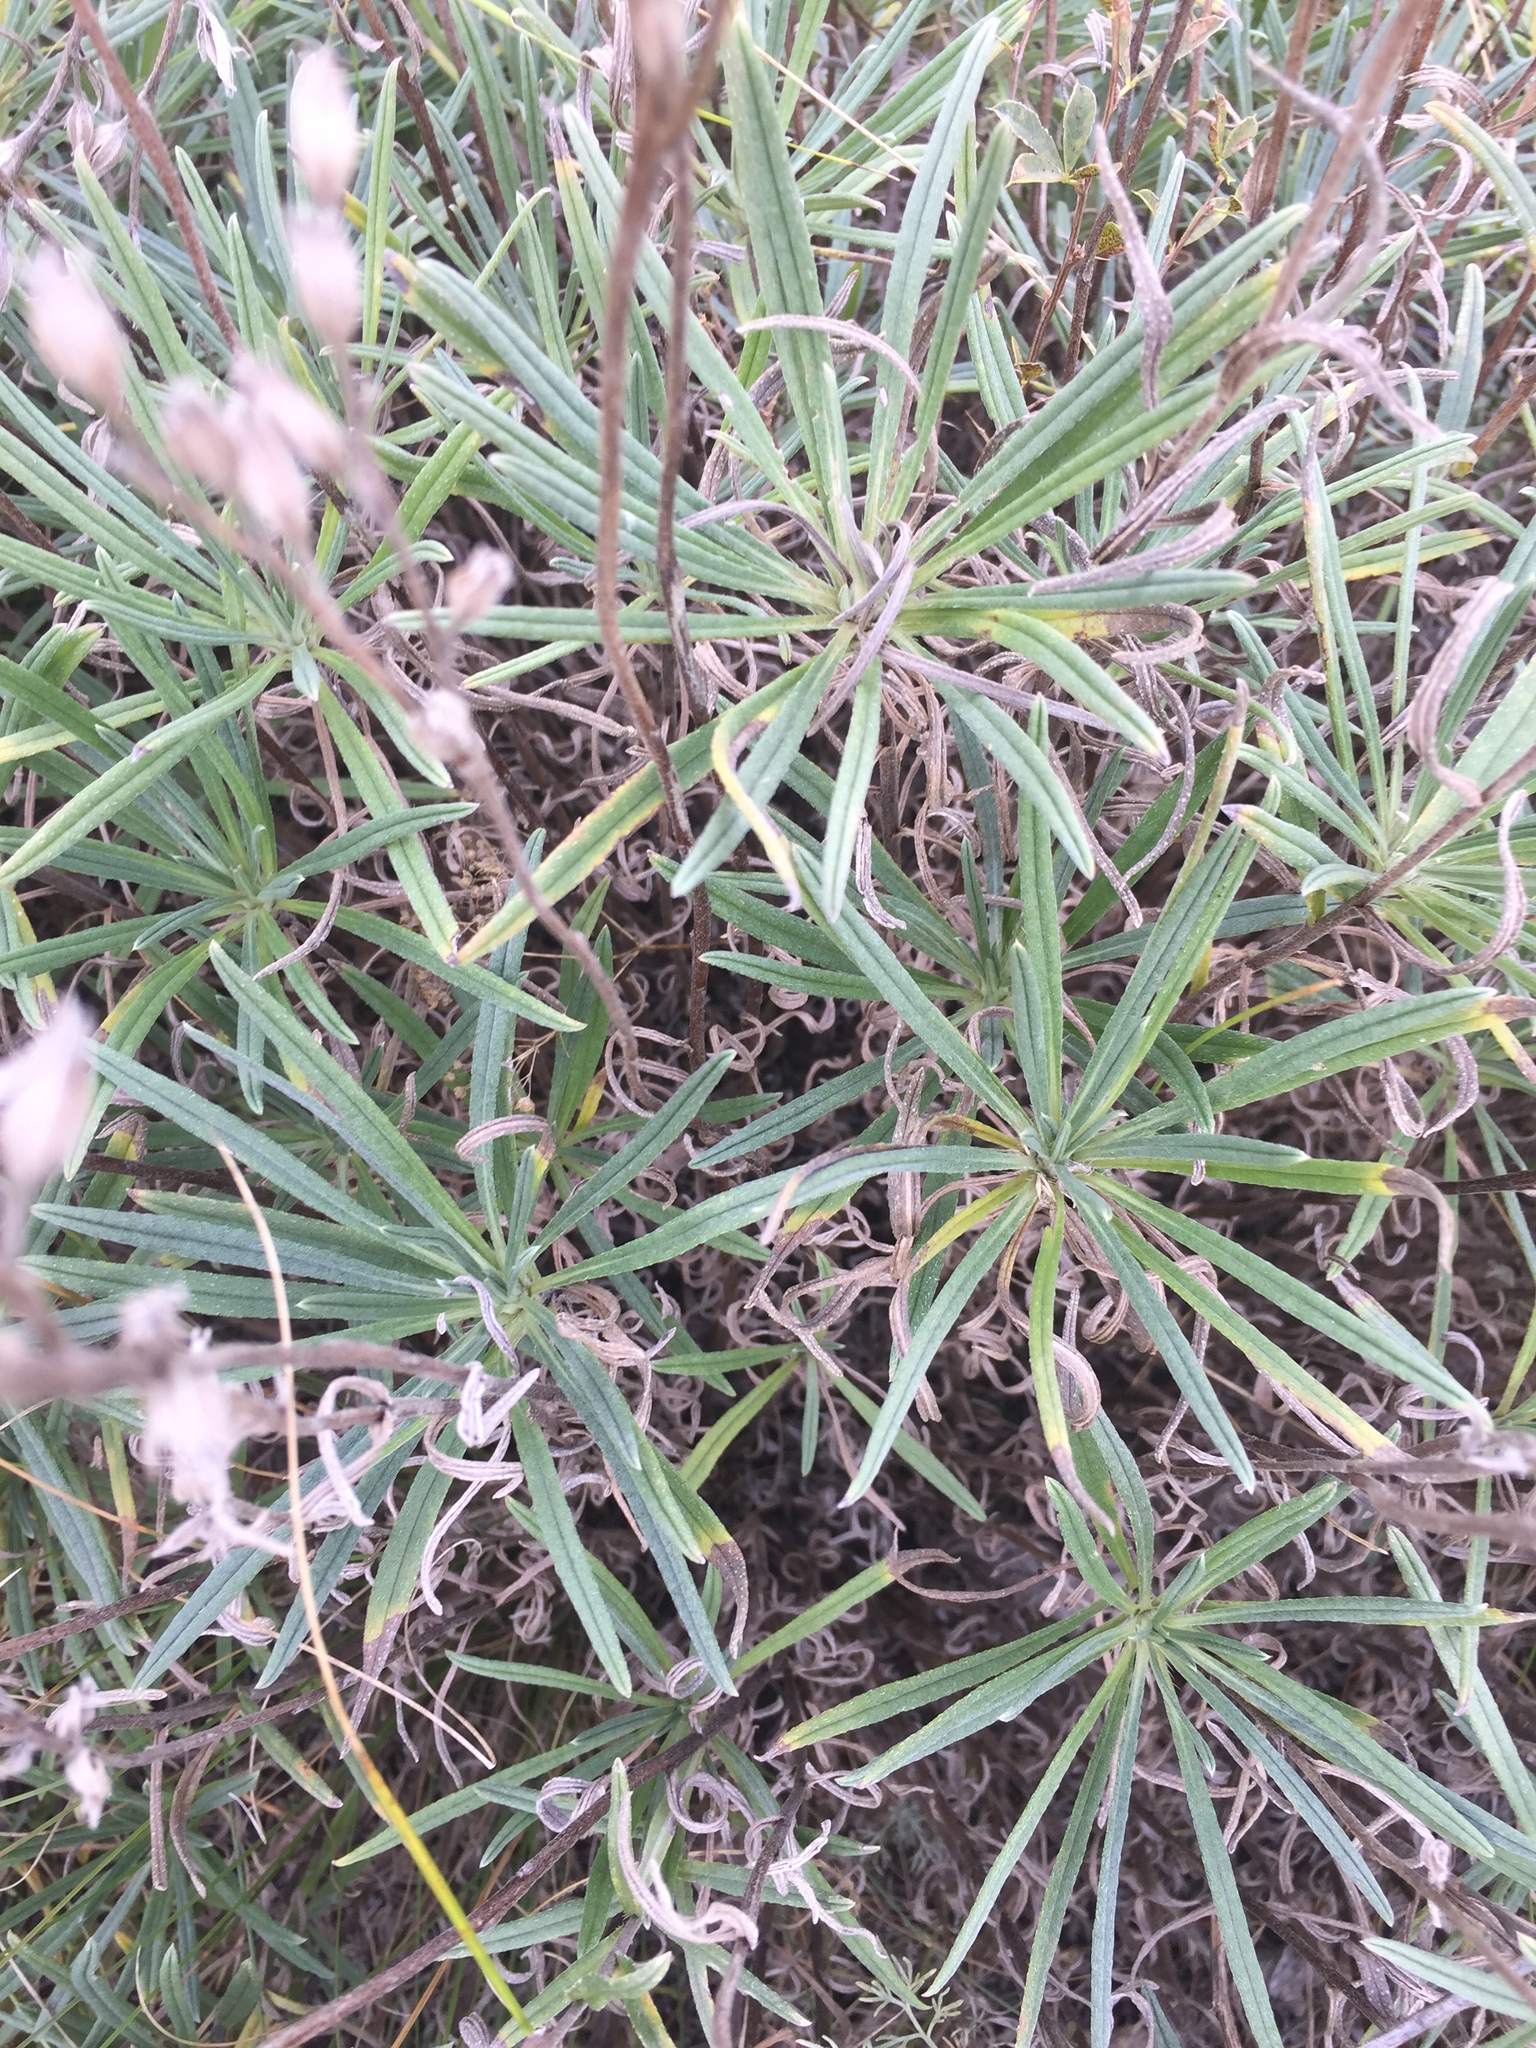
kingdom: Plantae
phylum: Tracheophyta
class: Magnoliopsida
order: Boraginales
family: Boraginaceae
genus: Onosma
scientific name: Onosma simplicissima
